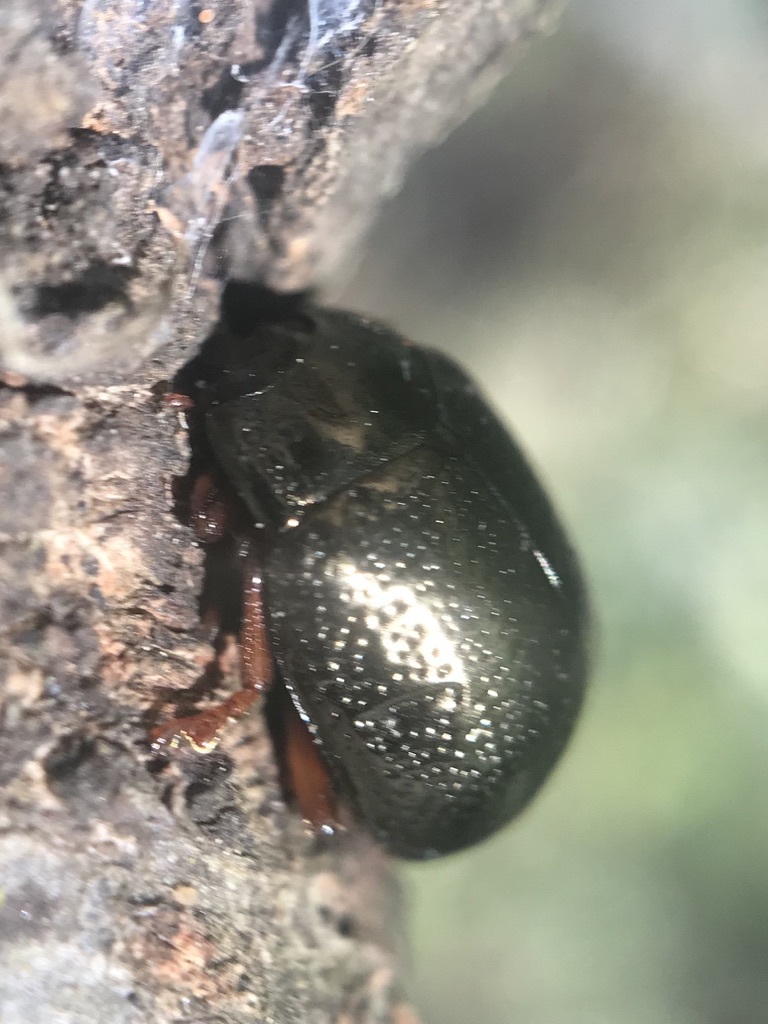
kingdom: Animalia
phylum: Arthropoda
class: Insecta
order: Coleoptera
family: Chrysomelidae
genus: Chrysolina
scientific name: Chrysolina bankii
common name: Leaf beetle
